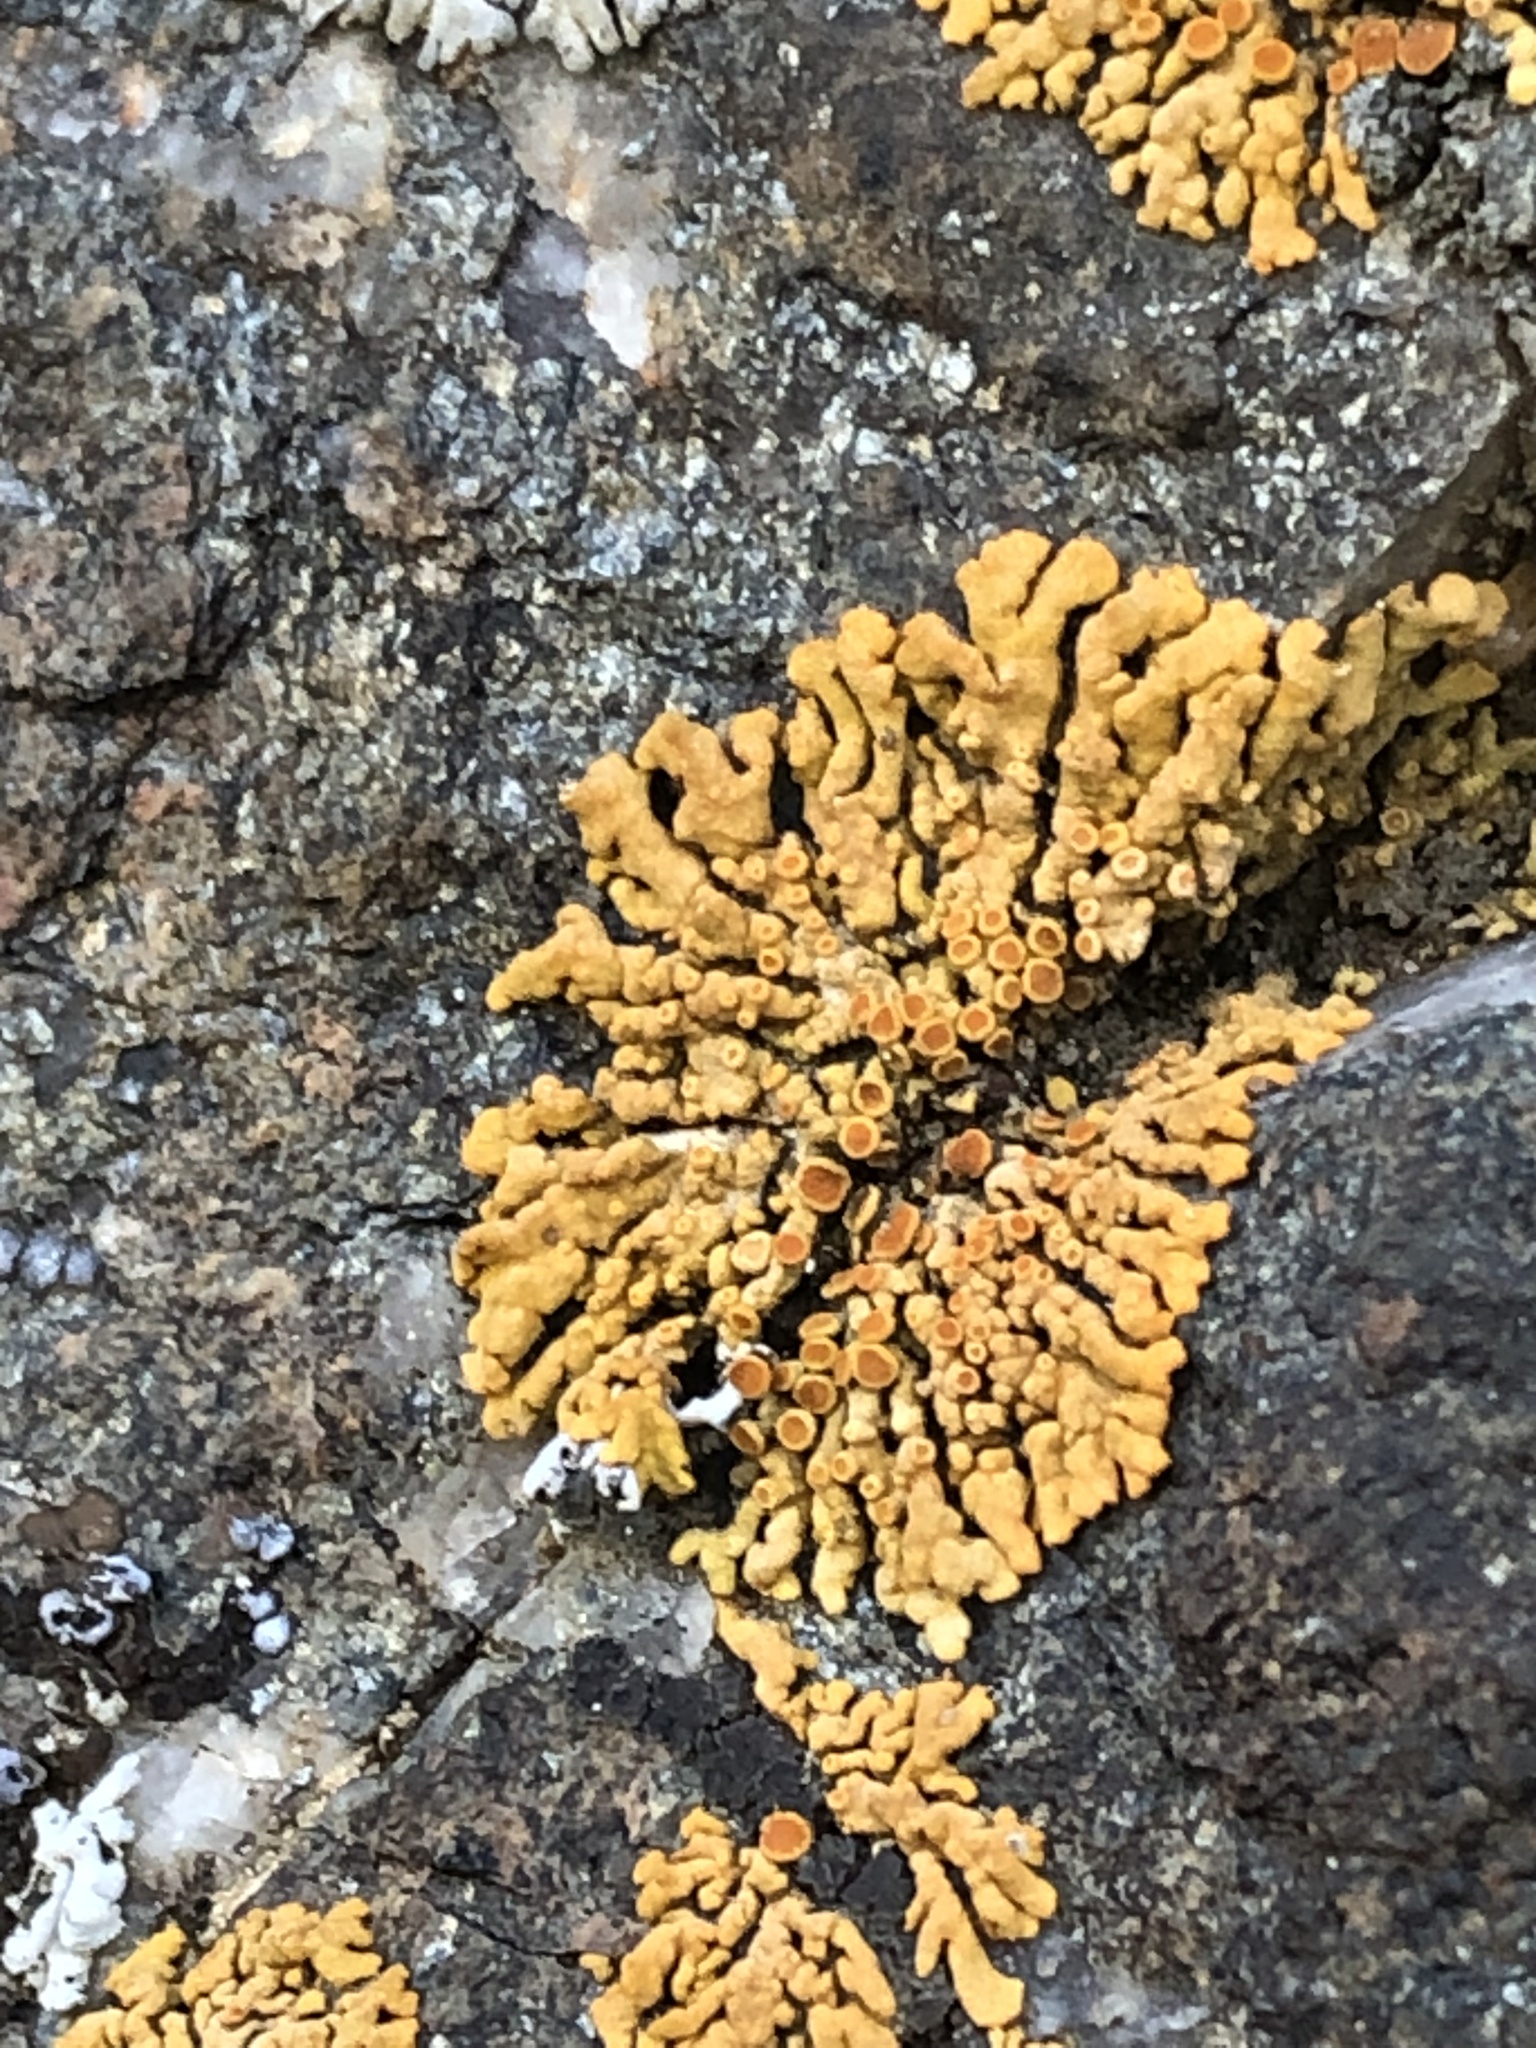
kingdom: Fungi
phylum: Ascomycota
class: Lecanoromycetes
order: Teloschistales
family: Teloschistaceae
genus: Xanthoria
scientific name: Xanthoria elegans
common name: Elegant sunburst lichen
